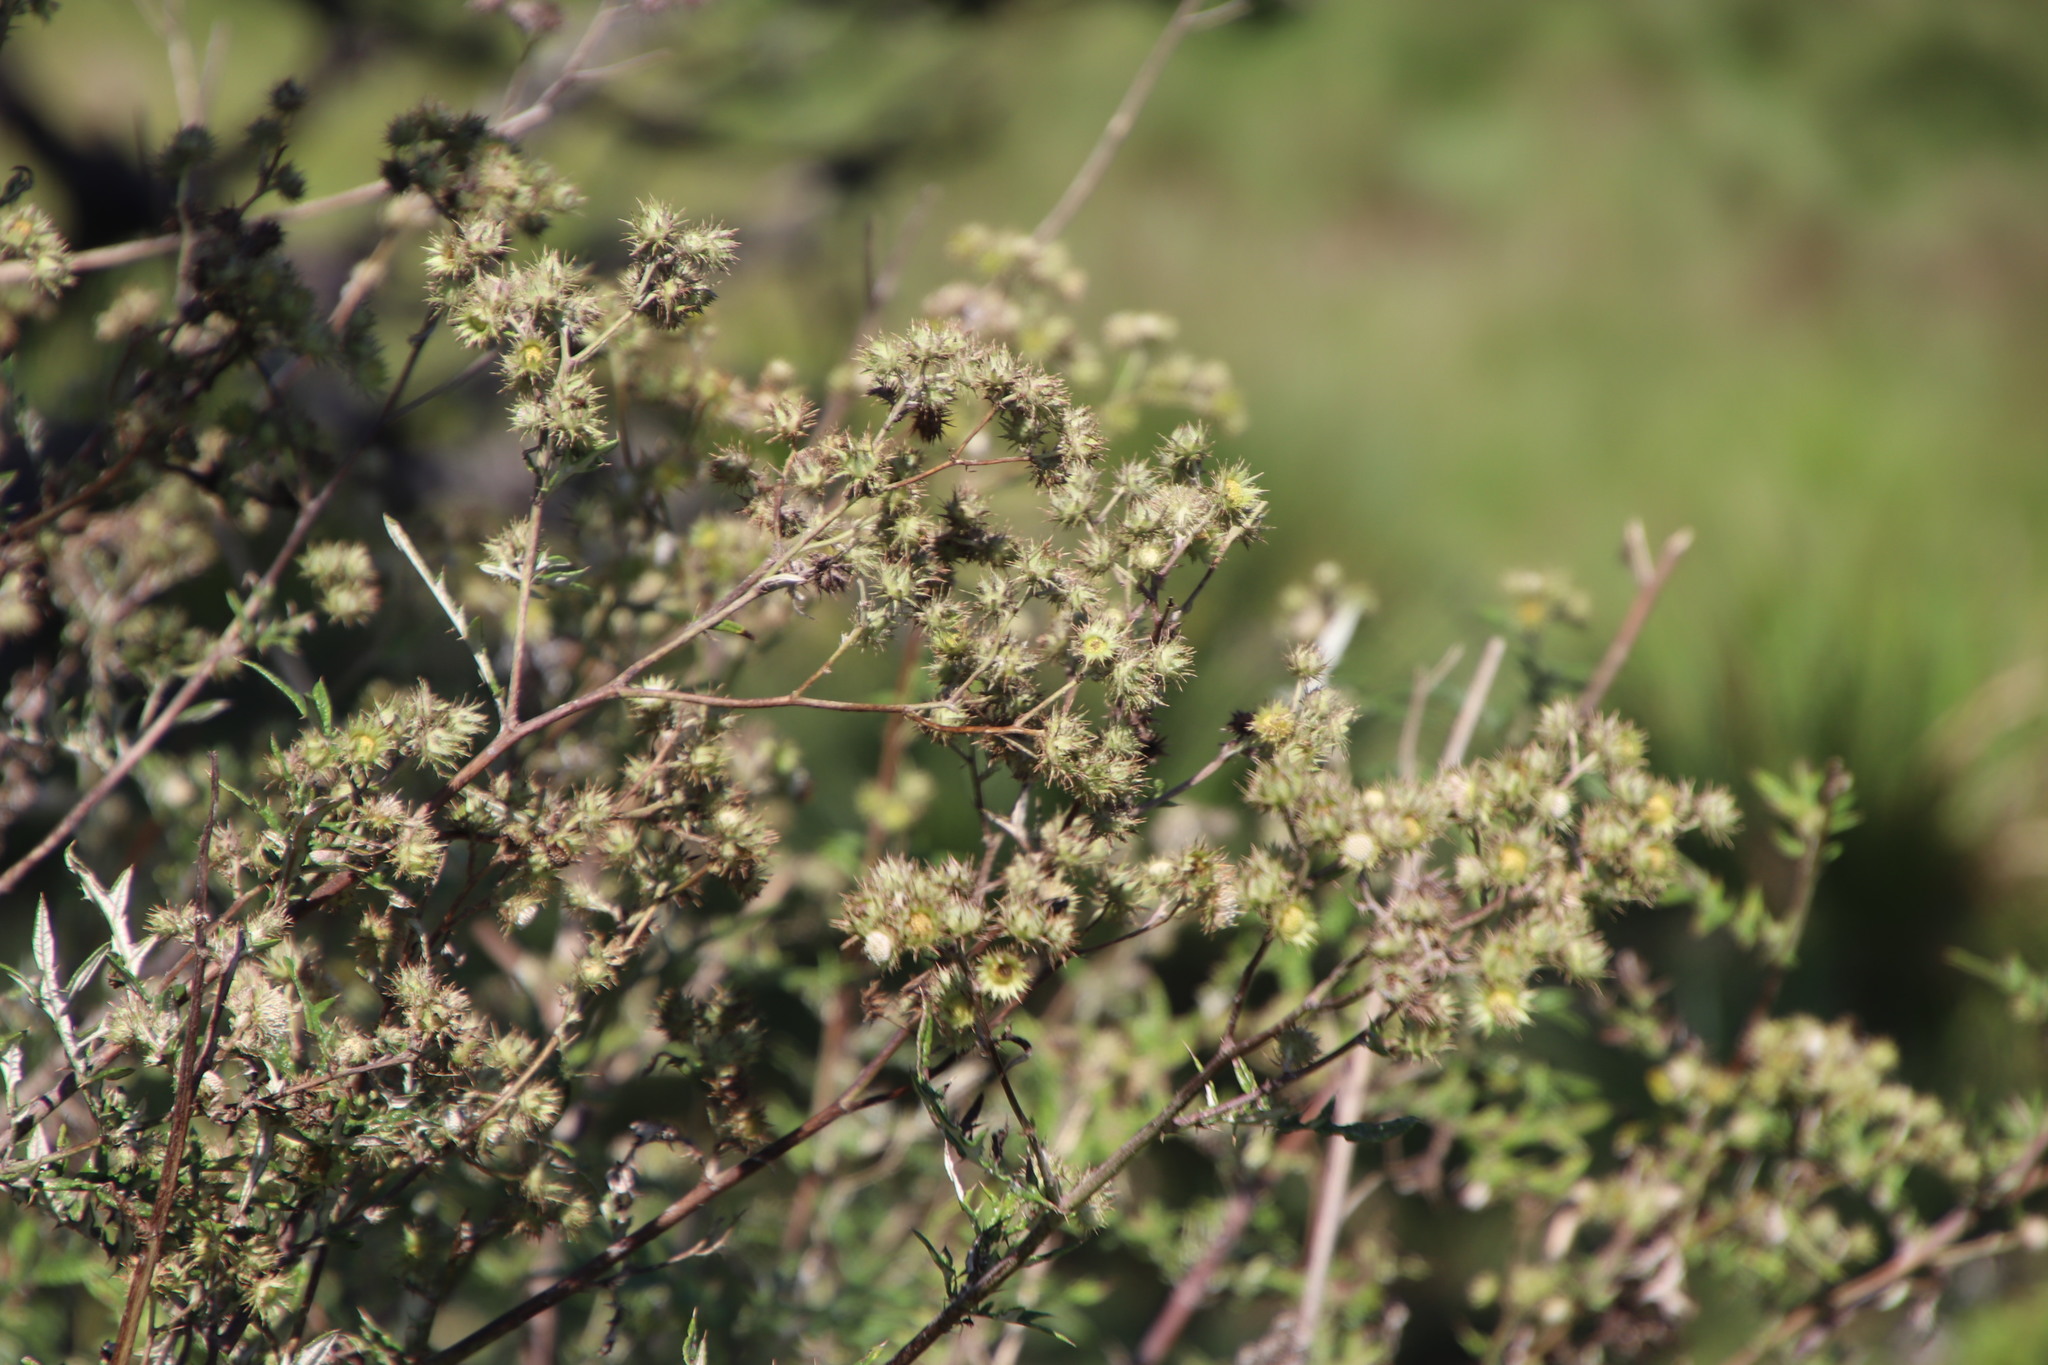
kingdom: Plantae
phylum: Tracheophyta
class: Magnoliopsida
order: Asterales
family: Asteraceae
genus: Berkheya
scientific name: Berkheya bipinnatifida
